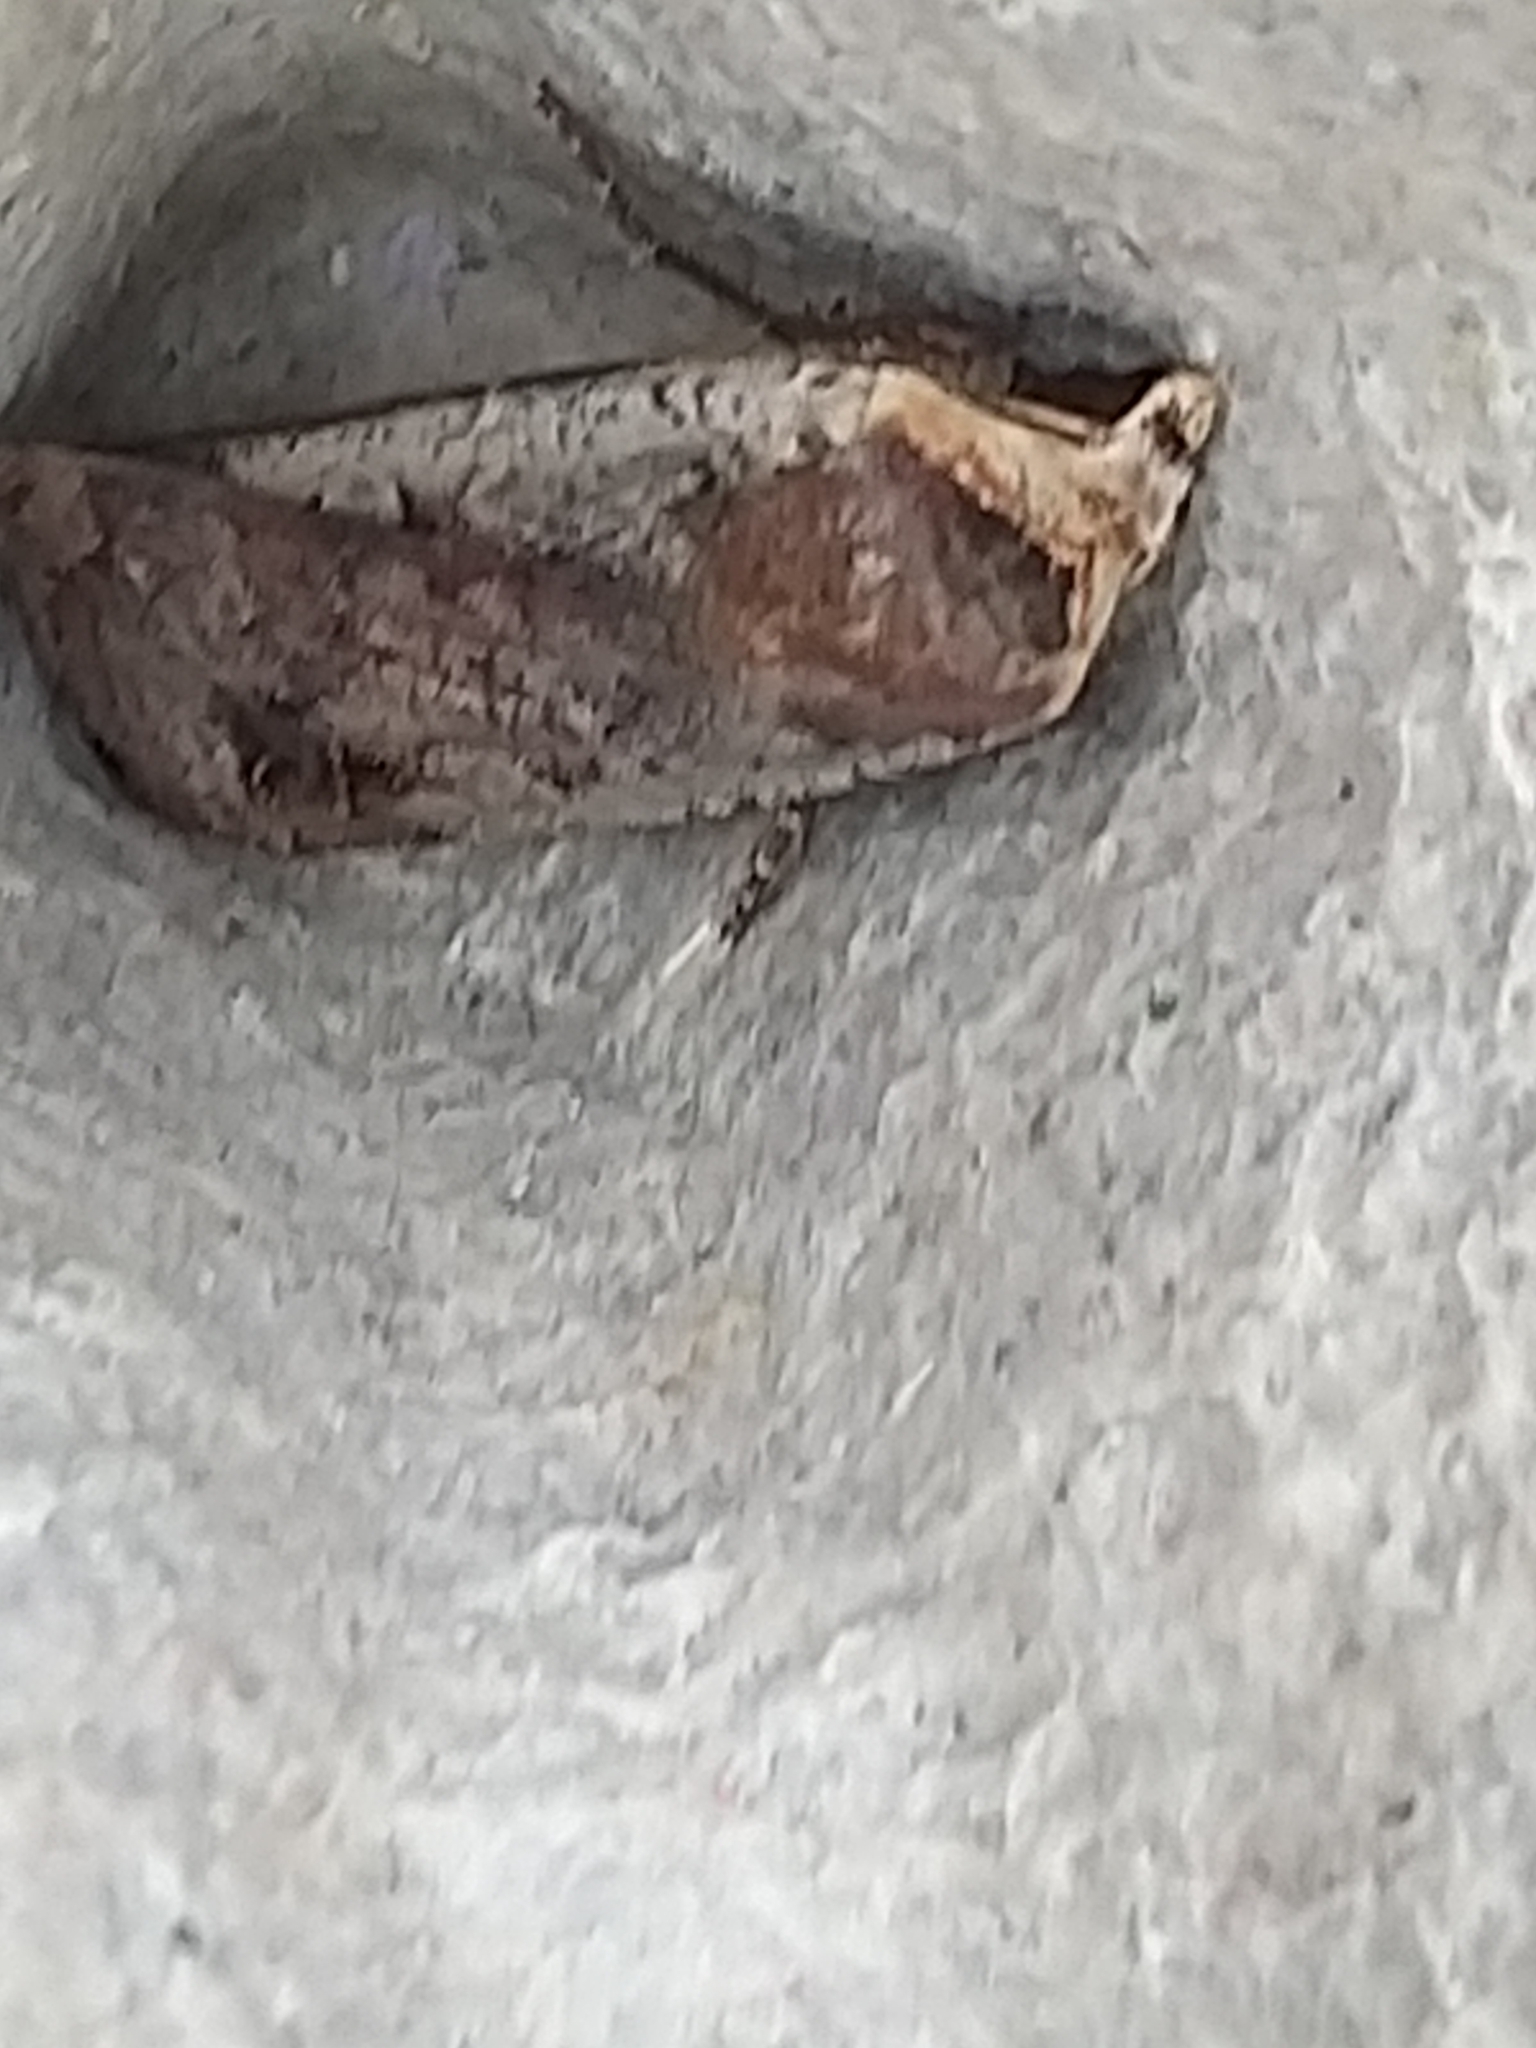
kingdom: Animalia
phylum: Arthropoda
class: Insecta
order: Lepidoptera
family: Noctuidae
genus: Noctua
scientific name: Noctua pronuba
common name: Large yellow underwing
